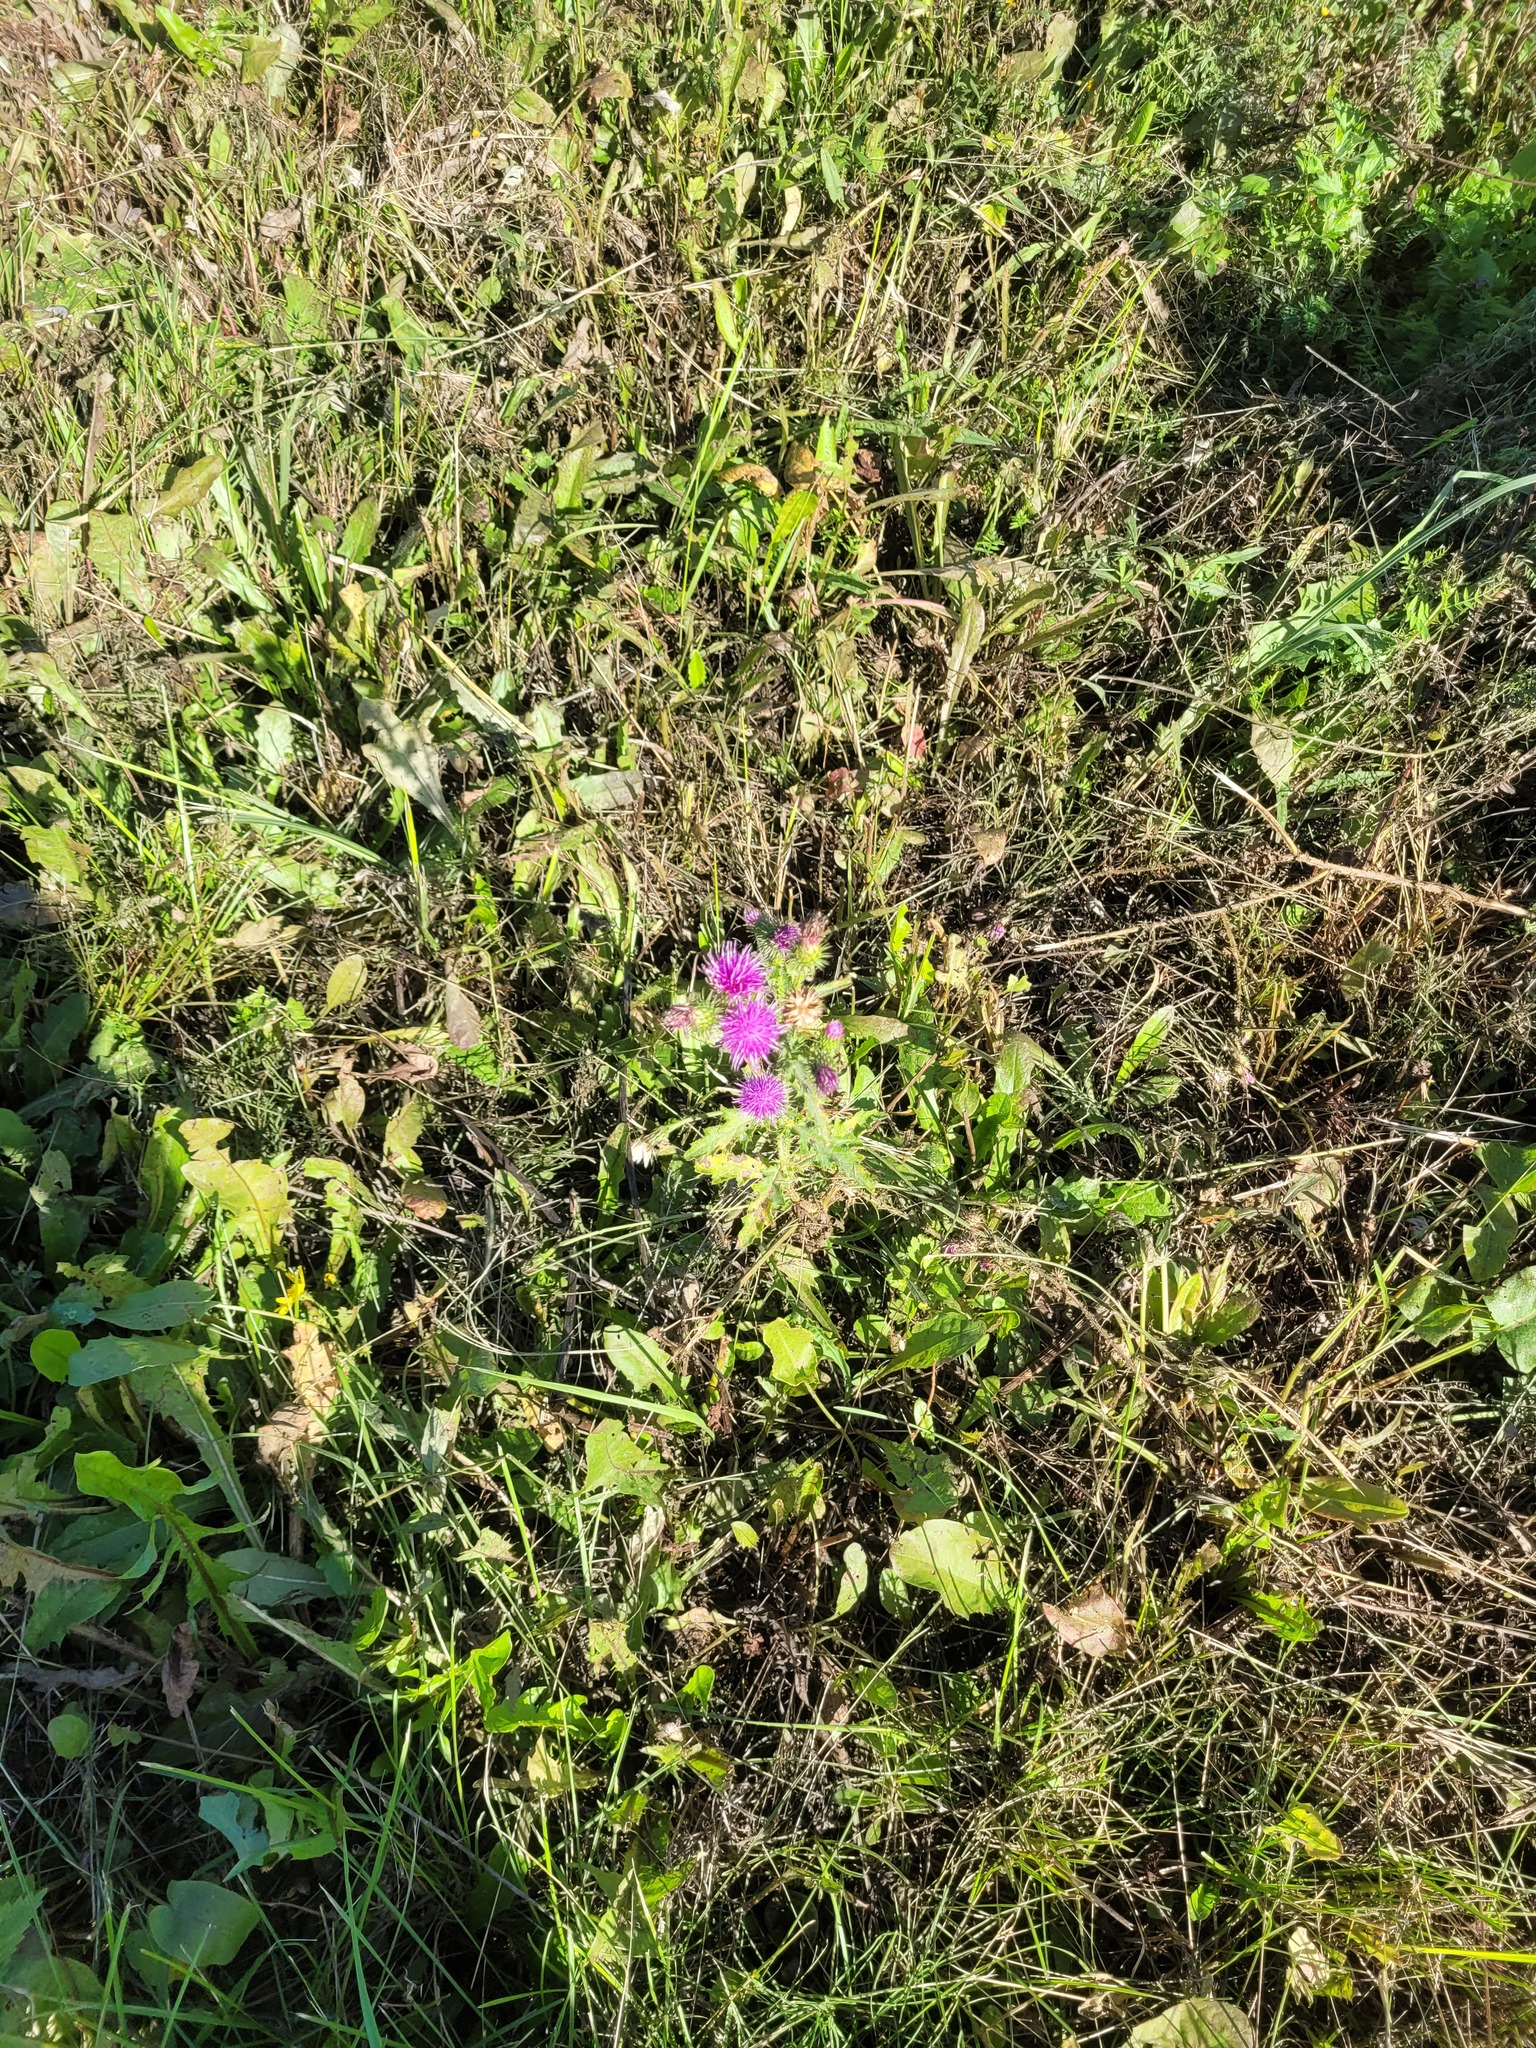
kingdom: Plantae
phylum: Tracheophyta
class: Magnoliopsida
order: Asterales
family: Asteraceae
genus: Carduus
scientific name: Carduus crispus
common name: Welted thistle
